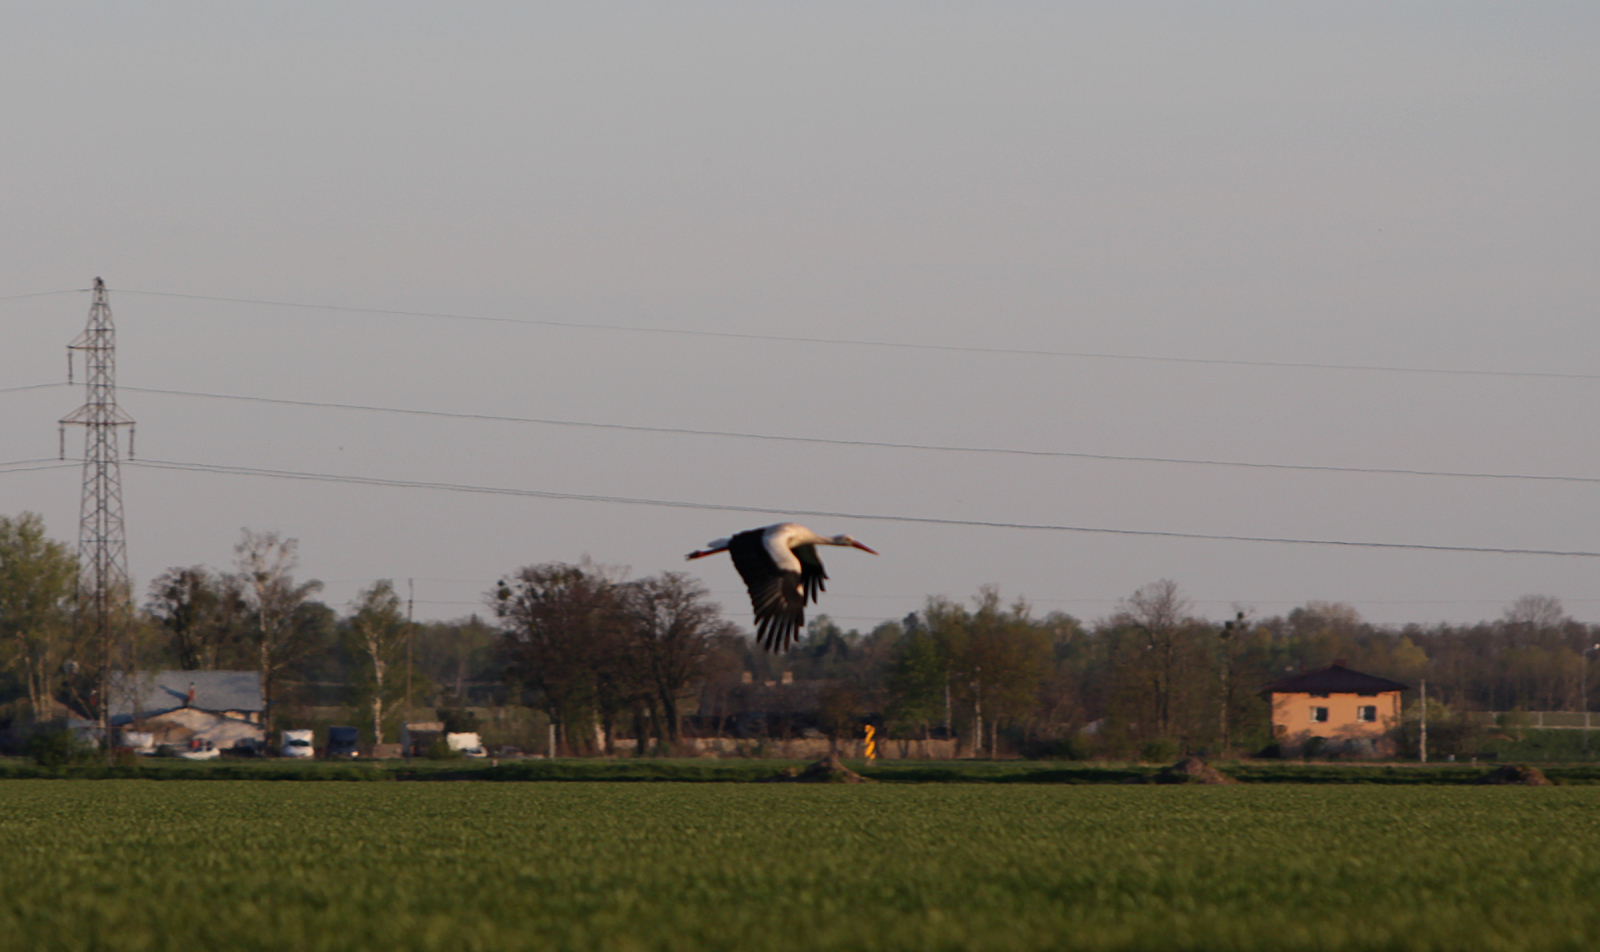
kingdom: Animalia
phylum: Chordata
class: Aves
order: Ciconiiformes
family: Ciconiidae
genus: Ciconia
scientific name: Ciconia ciconia
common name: White stork
